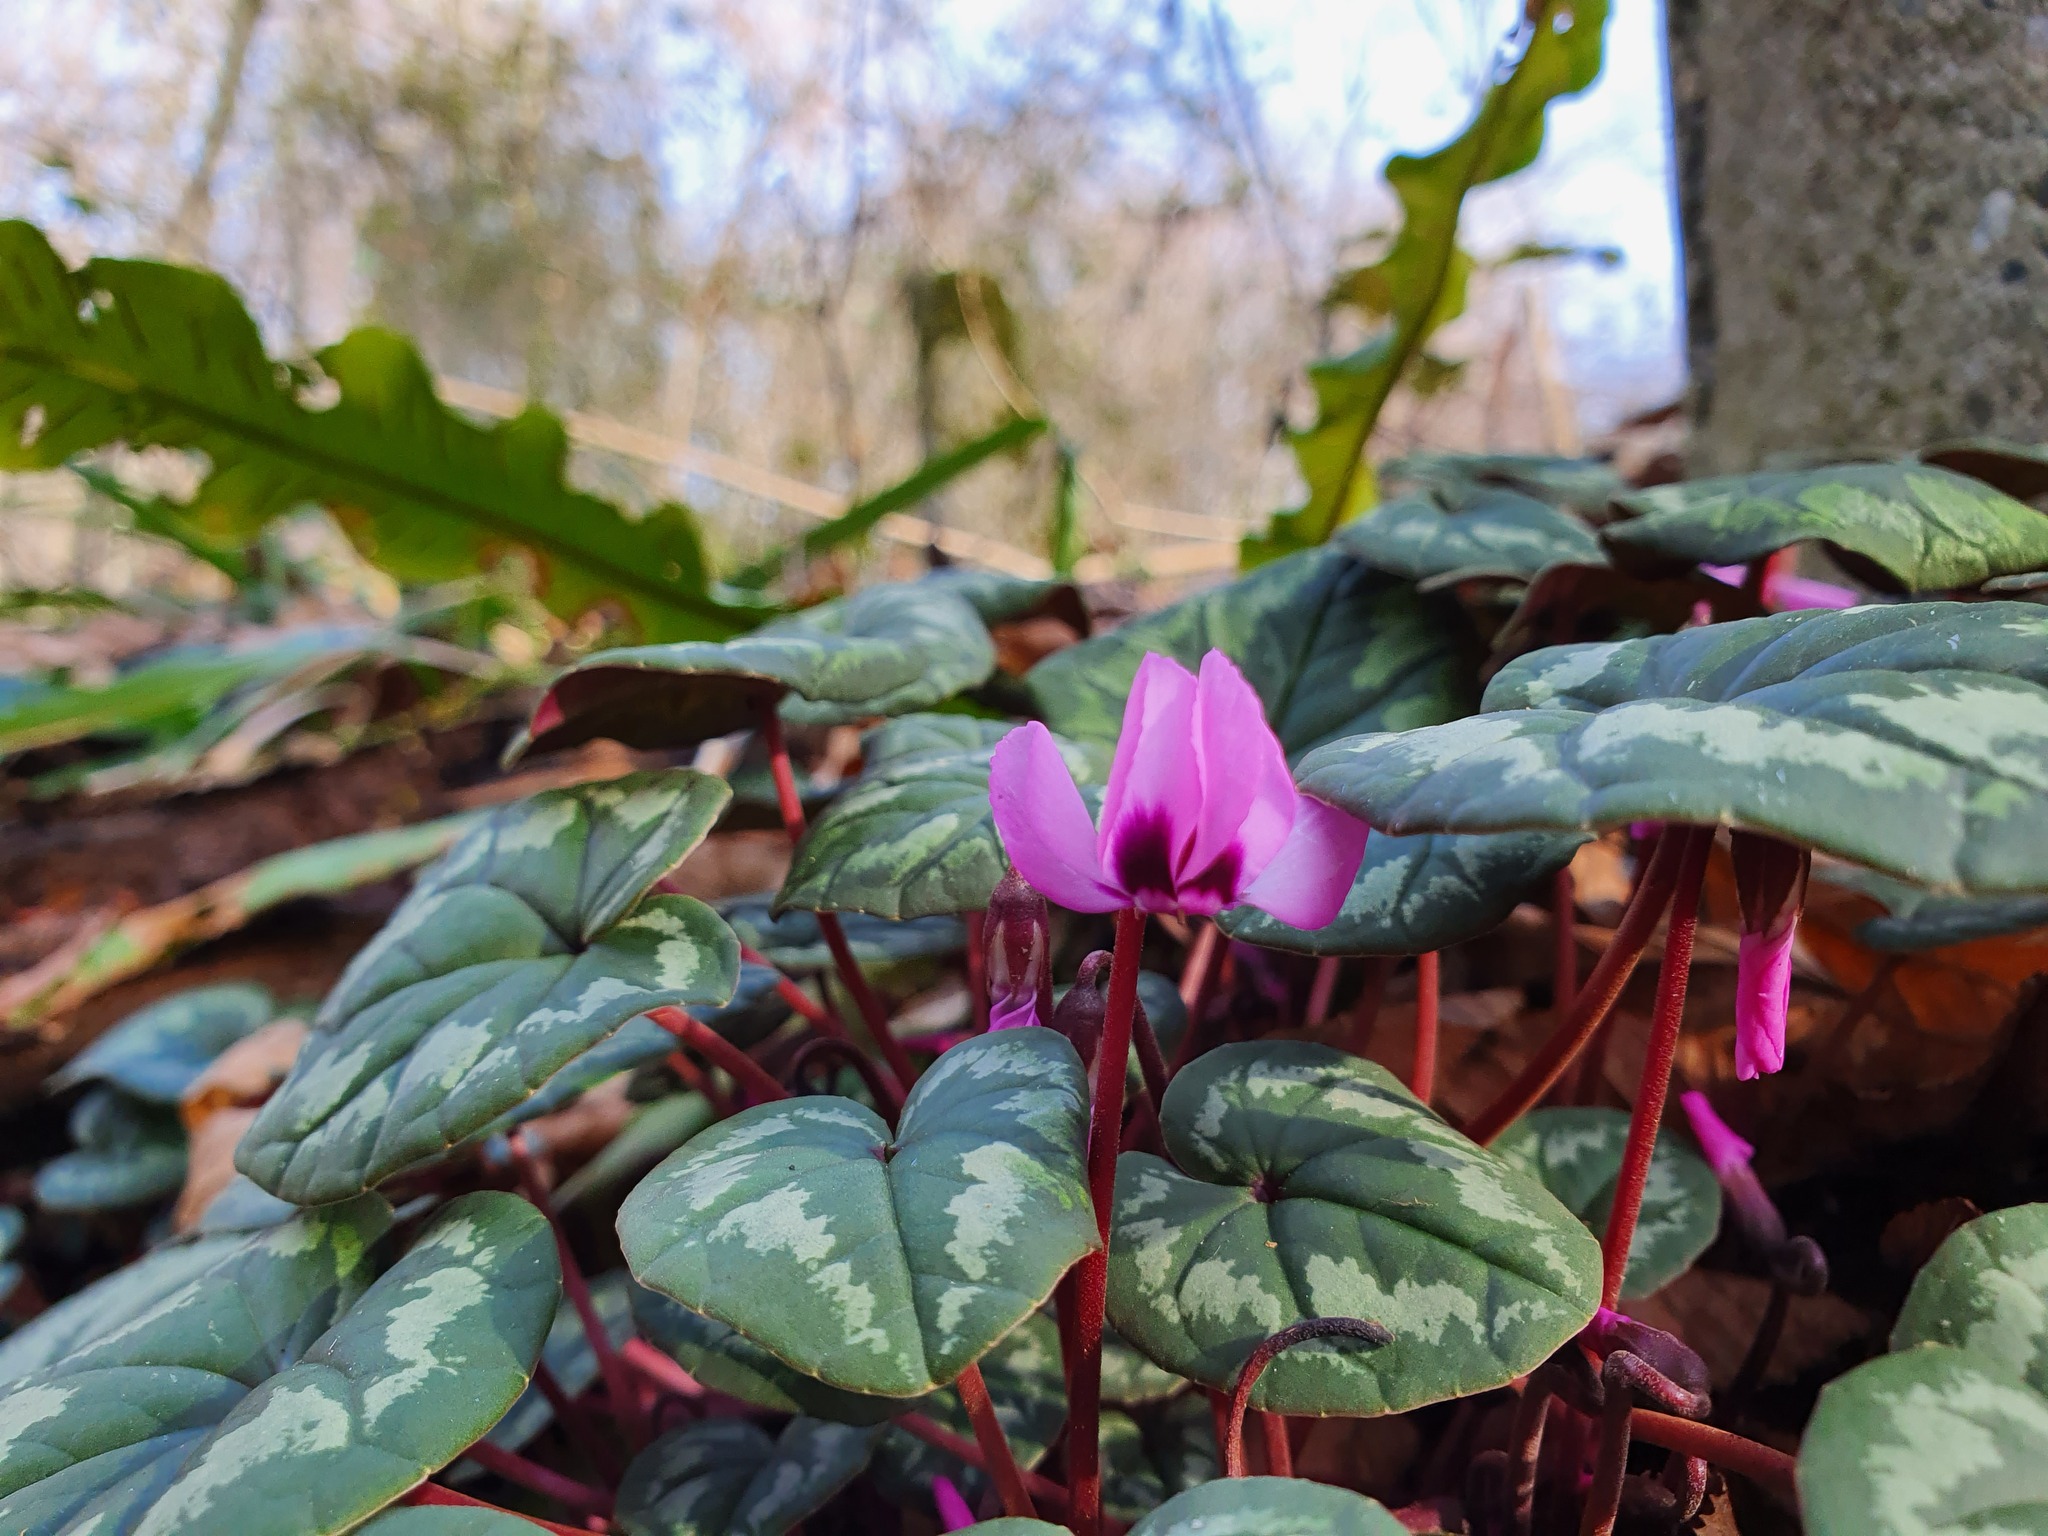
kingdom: Plantae
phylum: Tracheophyta
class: Magnoliopsida
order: Ericales
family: Primulaceae
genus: Cyclamen
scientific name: Cyclamen coum
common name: Eastern sowbread
